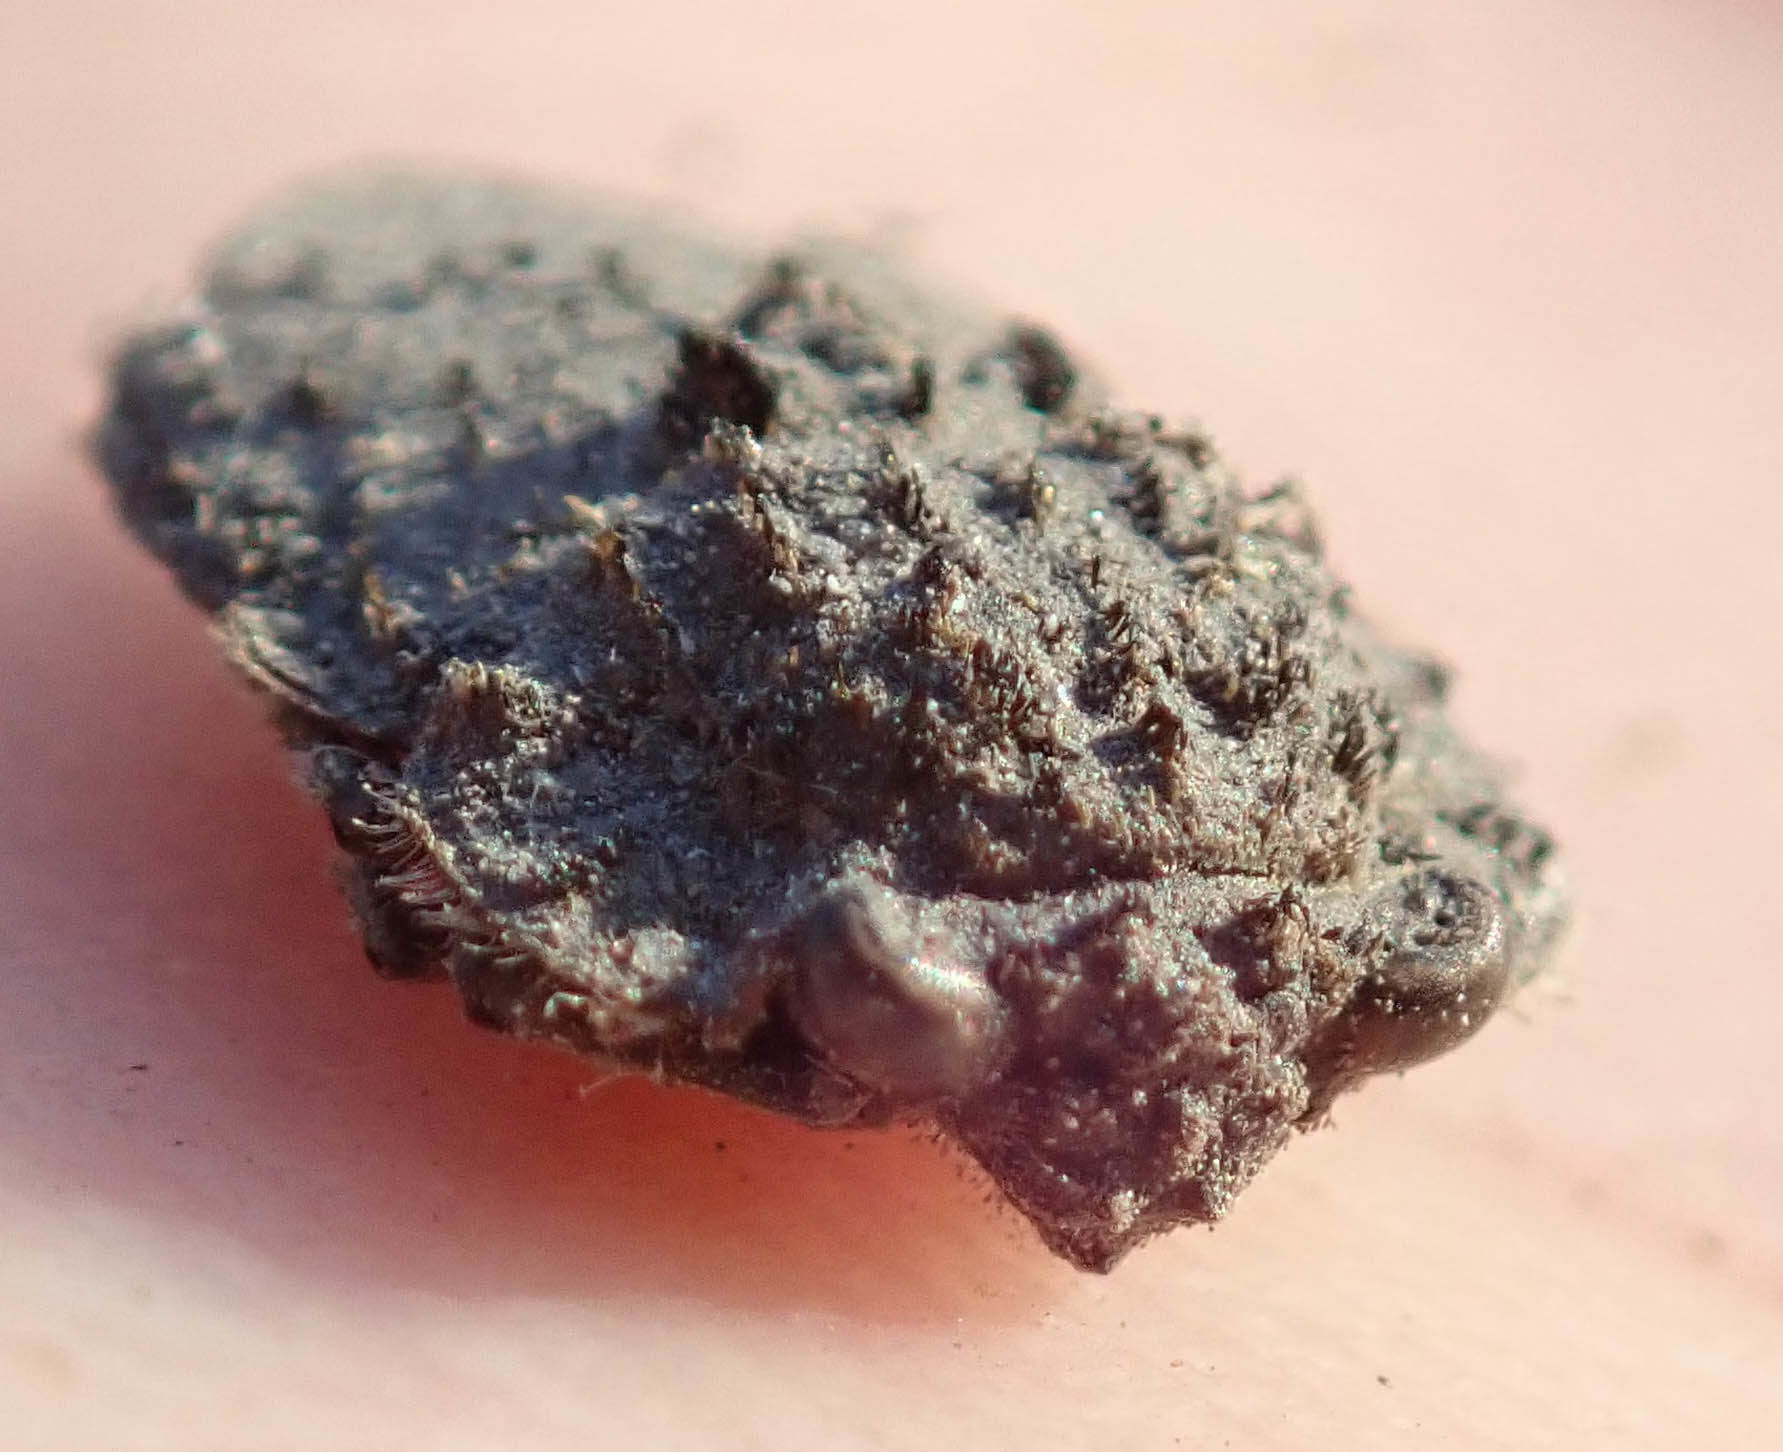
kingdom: Animalia
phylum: Arthropoda
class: Insecta
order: Hemiptera
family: Gelastocoridae
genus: Nerthra
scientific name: Nerthra grandicollis
